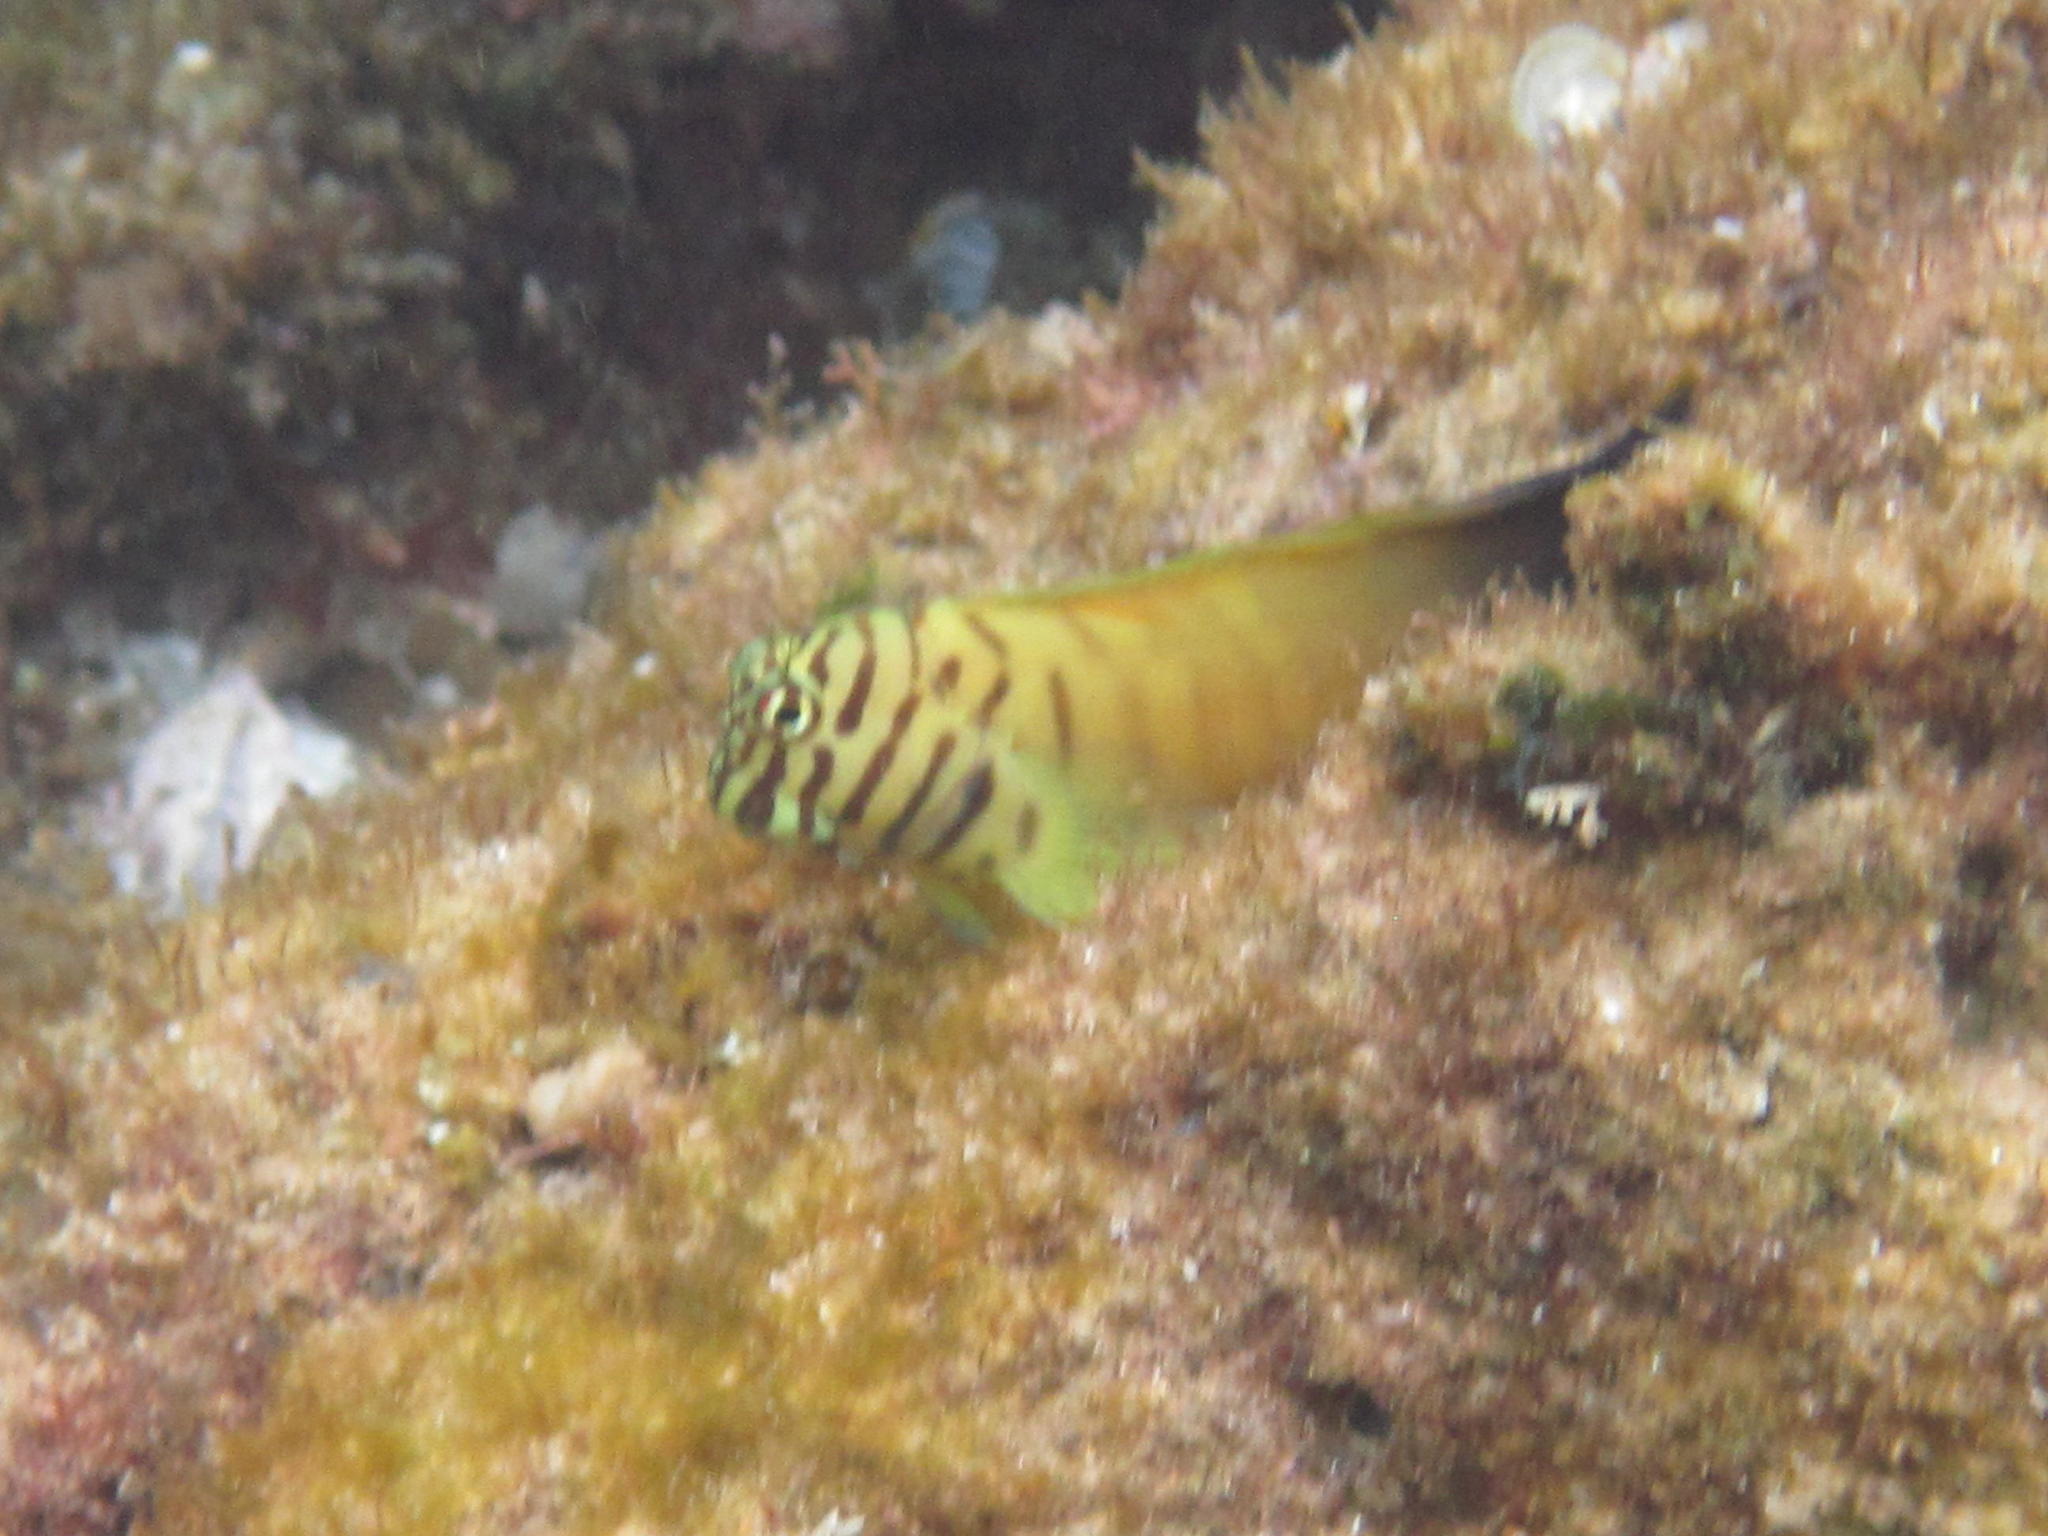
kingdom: Animalia
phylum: Chordata
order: Perciformes
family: Blenniidae
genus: Cirripectes
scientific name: Cirripectes castaneus
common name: Chestnut blenny
